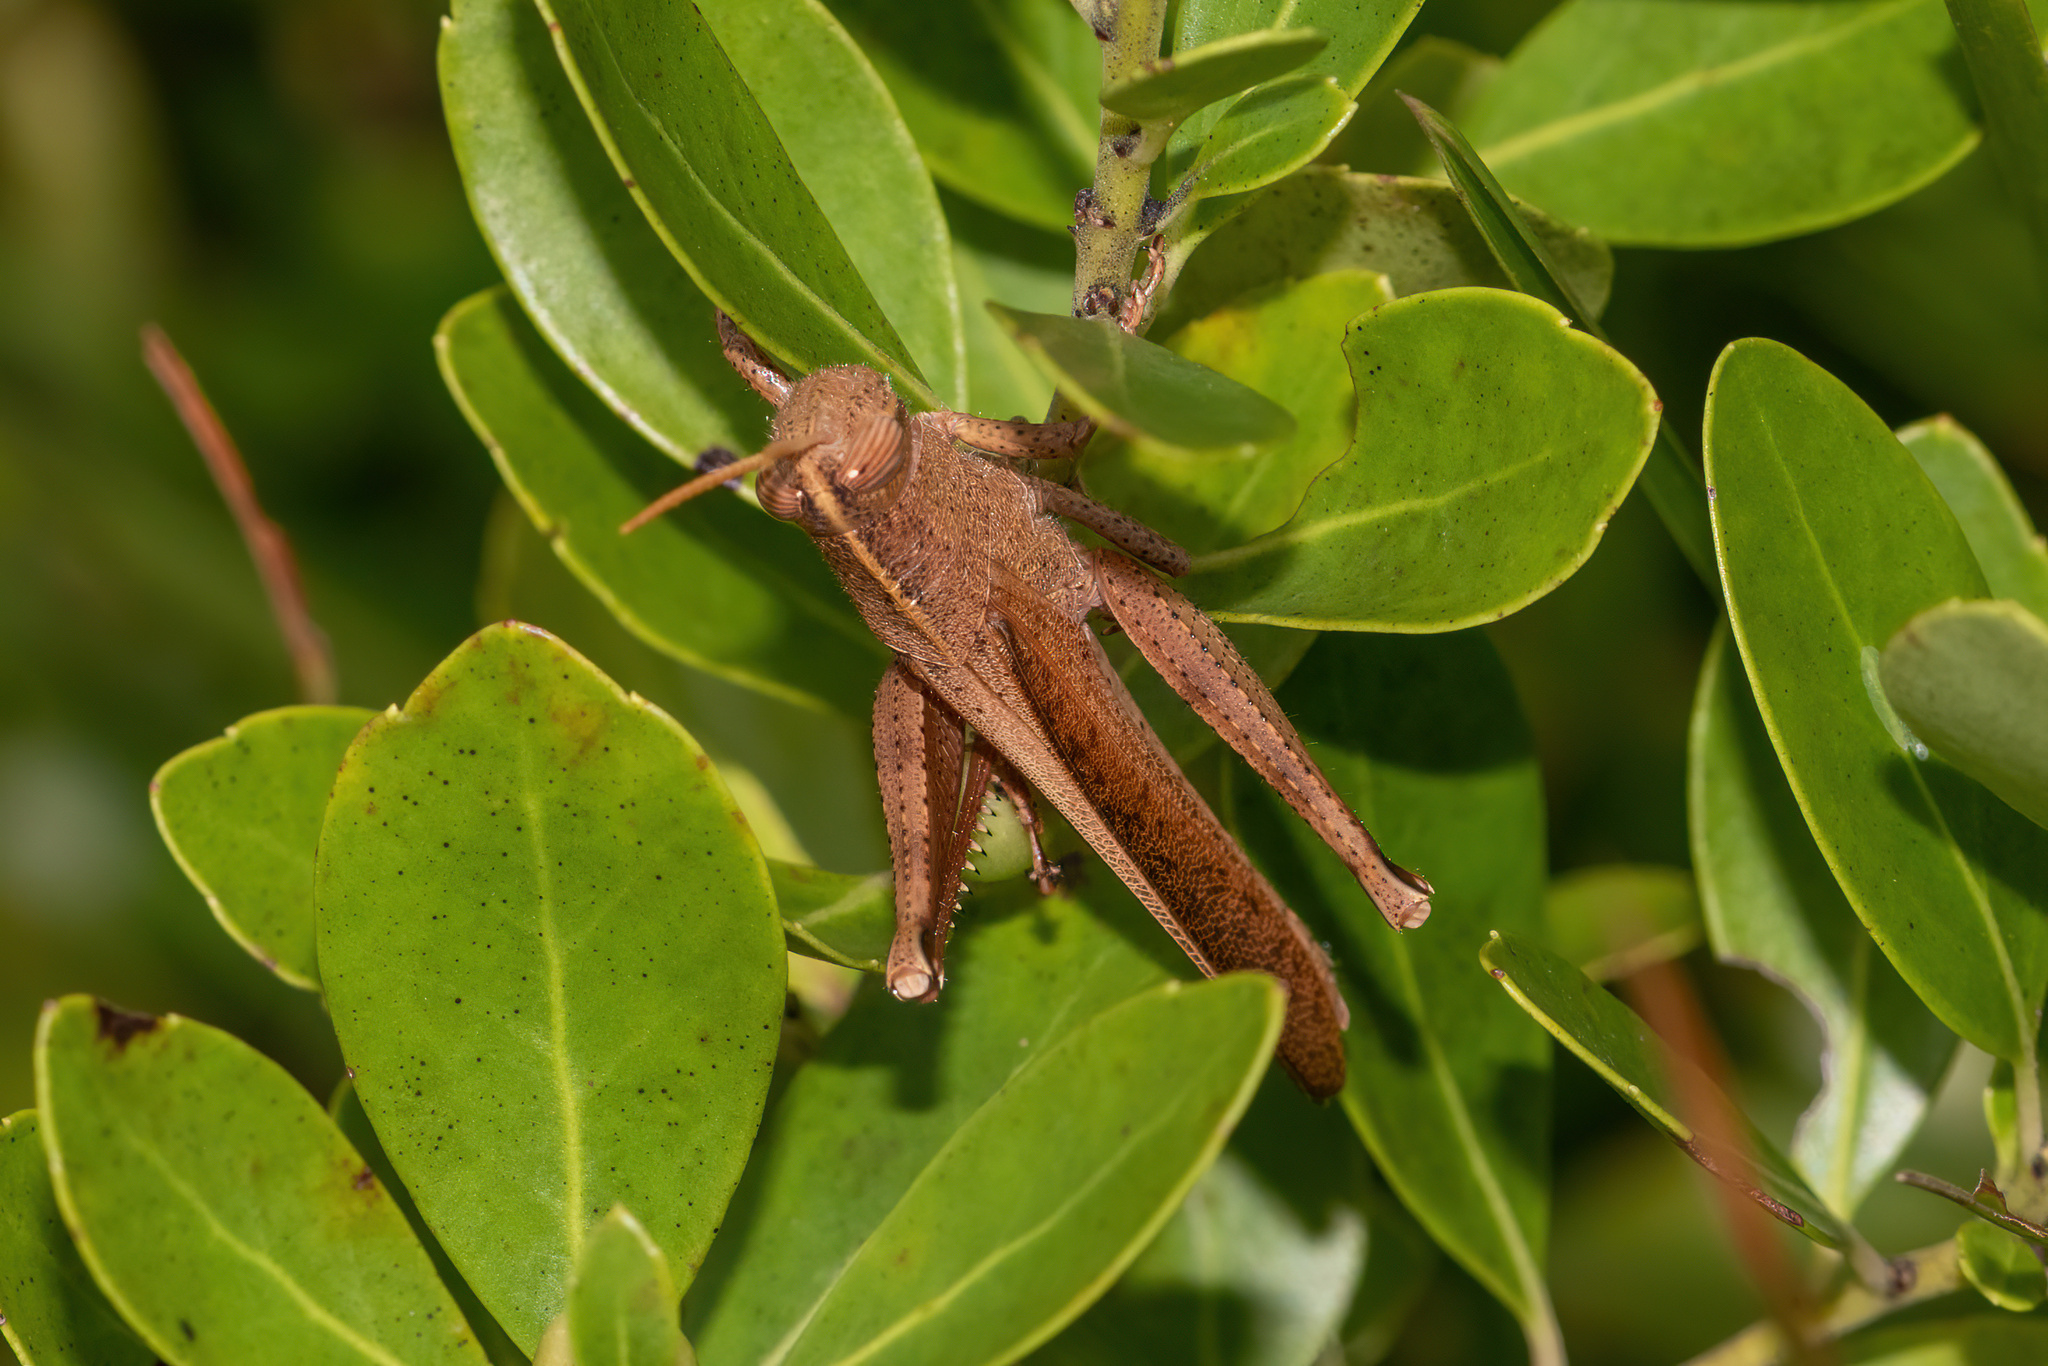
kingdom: Animalia
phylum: Arthropoda
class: Insecta
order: Orthoptera
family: Acrididae
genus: Schistocerca
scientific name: Schistocerca damnifica
